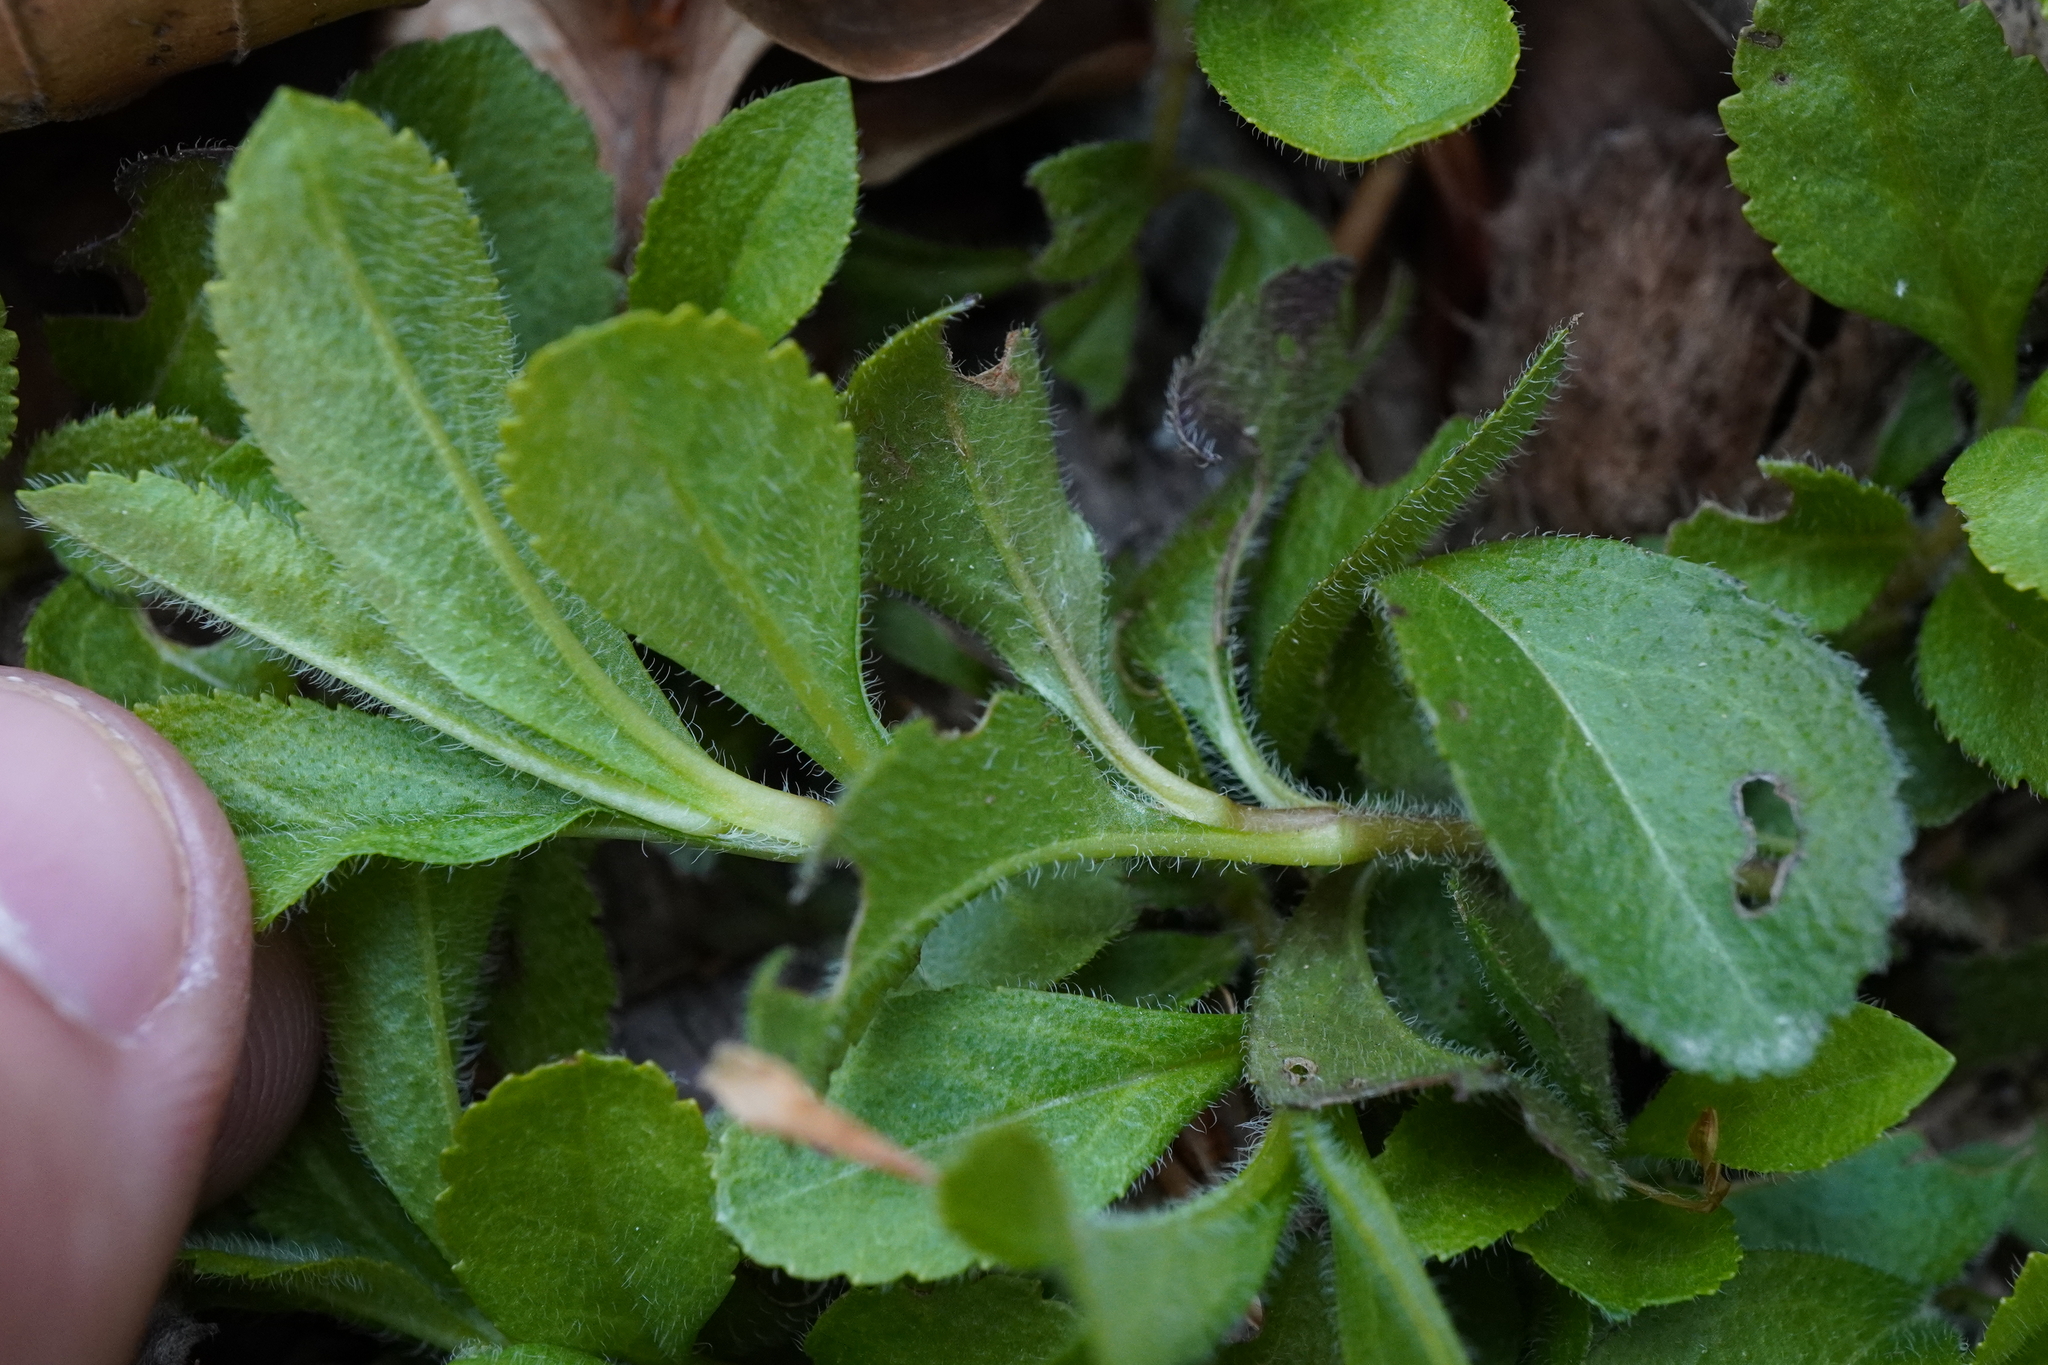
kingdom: Plantae
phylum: Tracheophyta
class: Magnoliopsida
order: Lamiales
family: Plantaginaceae
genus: Veronica
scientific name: Veronica officinalis
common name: Common speedwell
